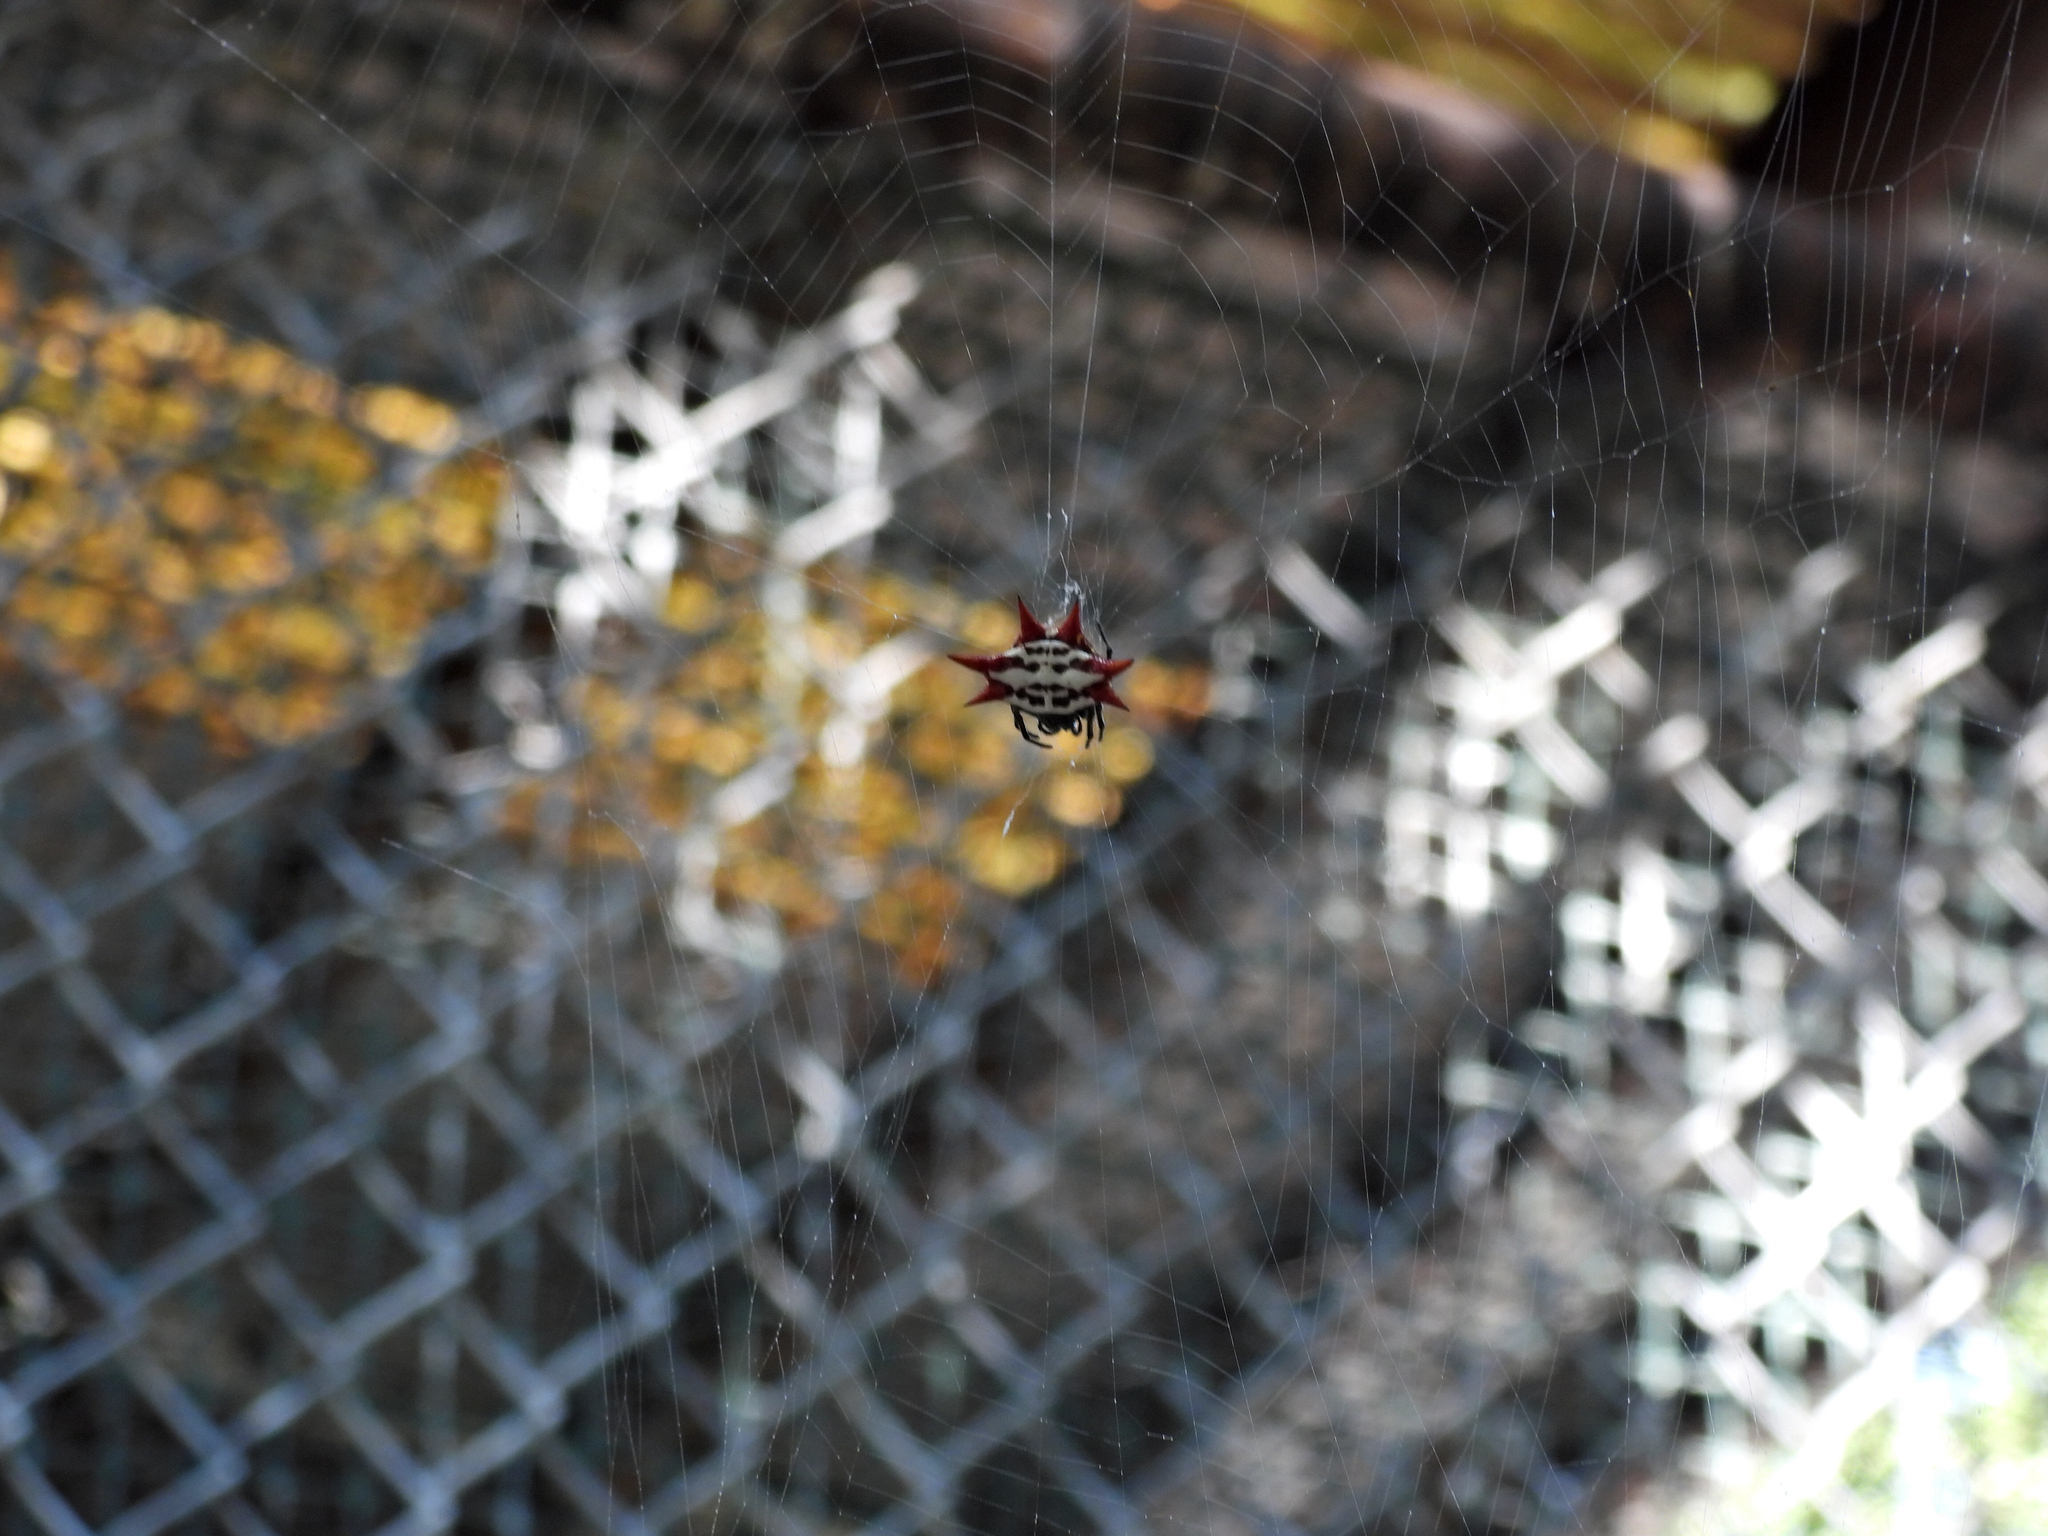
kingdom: Animalia
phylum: Arthropoda
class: Arachnida
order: Araneae
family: Araneidae
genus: Gasteracantha
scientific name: Gasteracantha cancriformis
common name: Orb weavers
